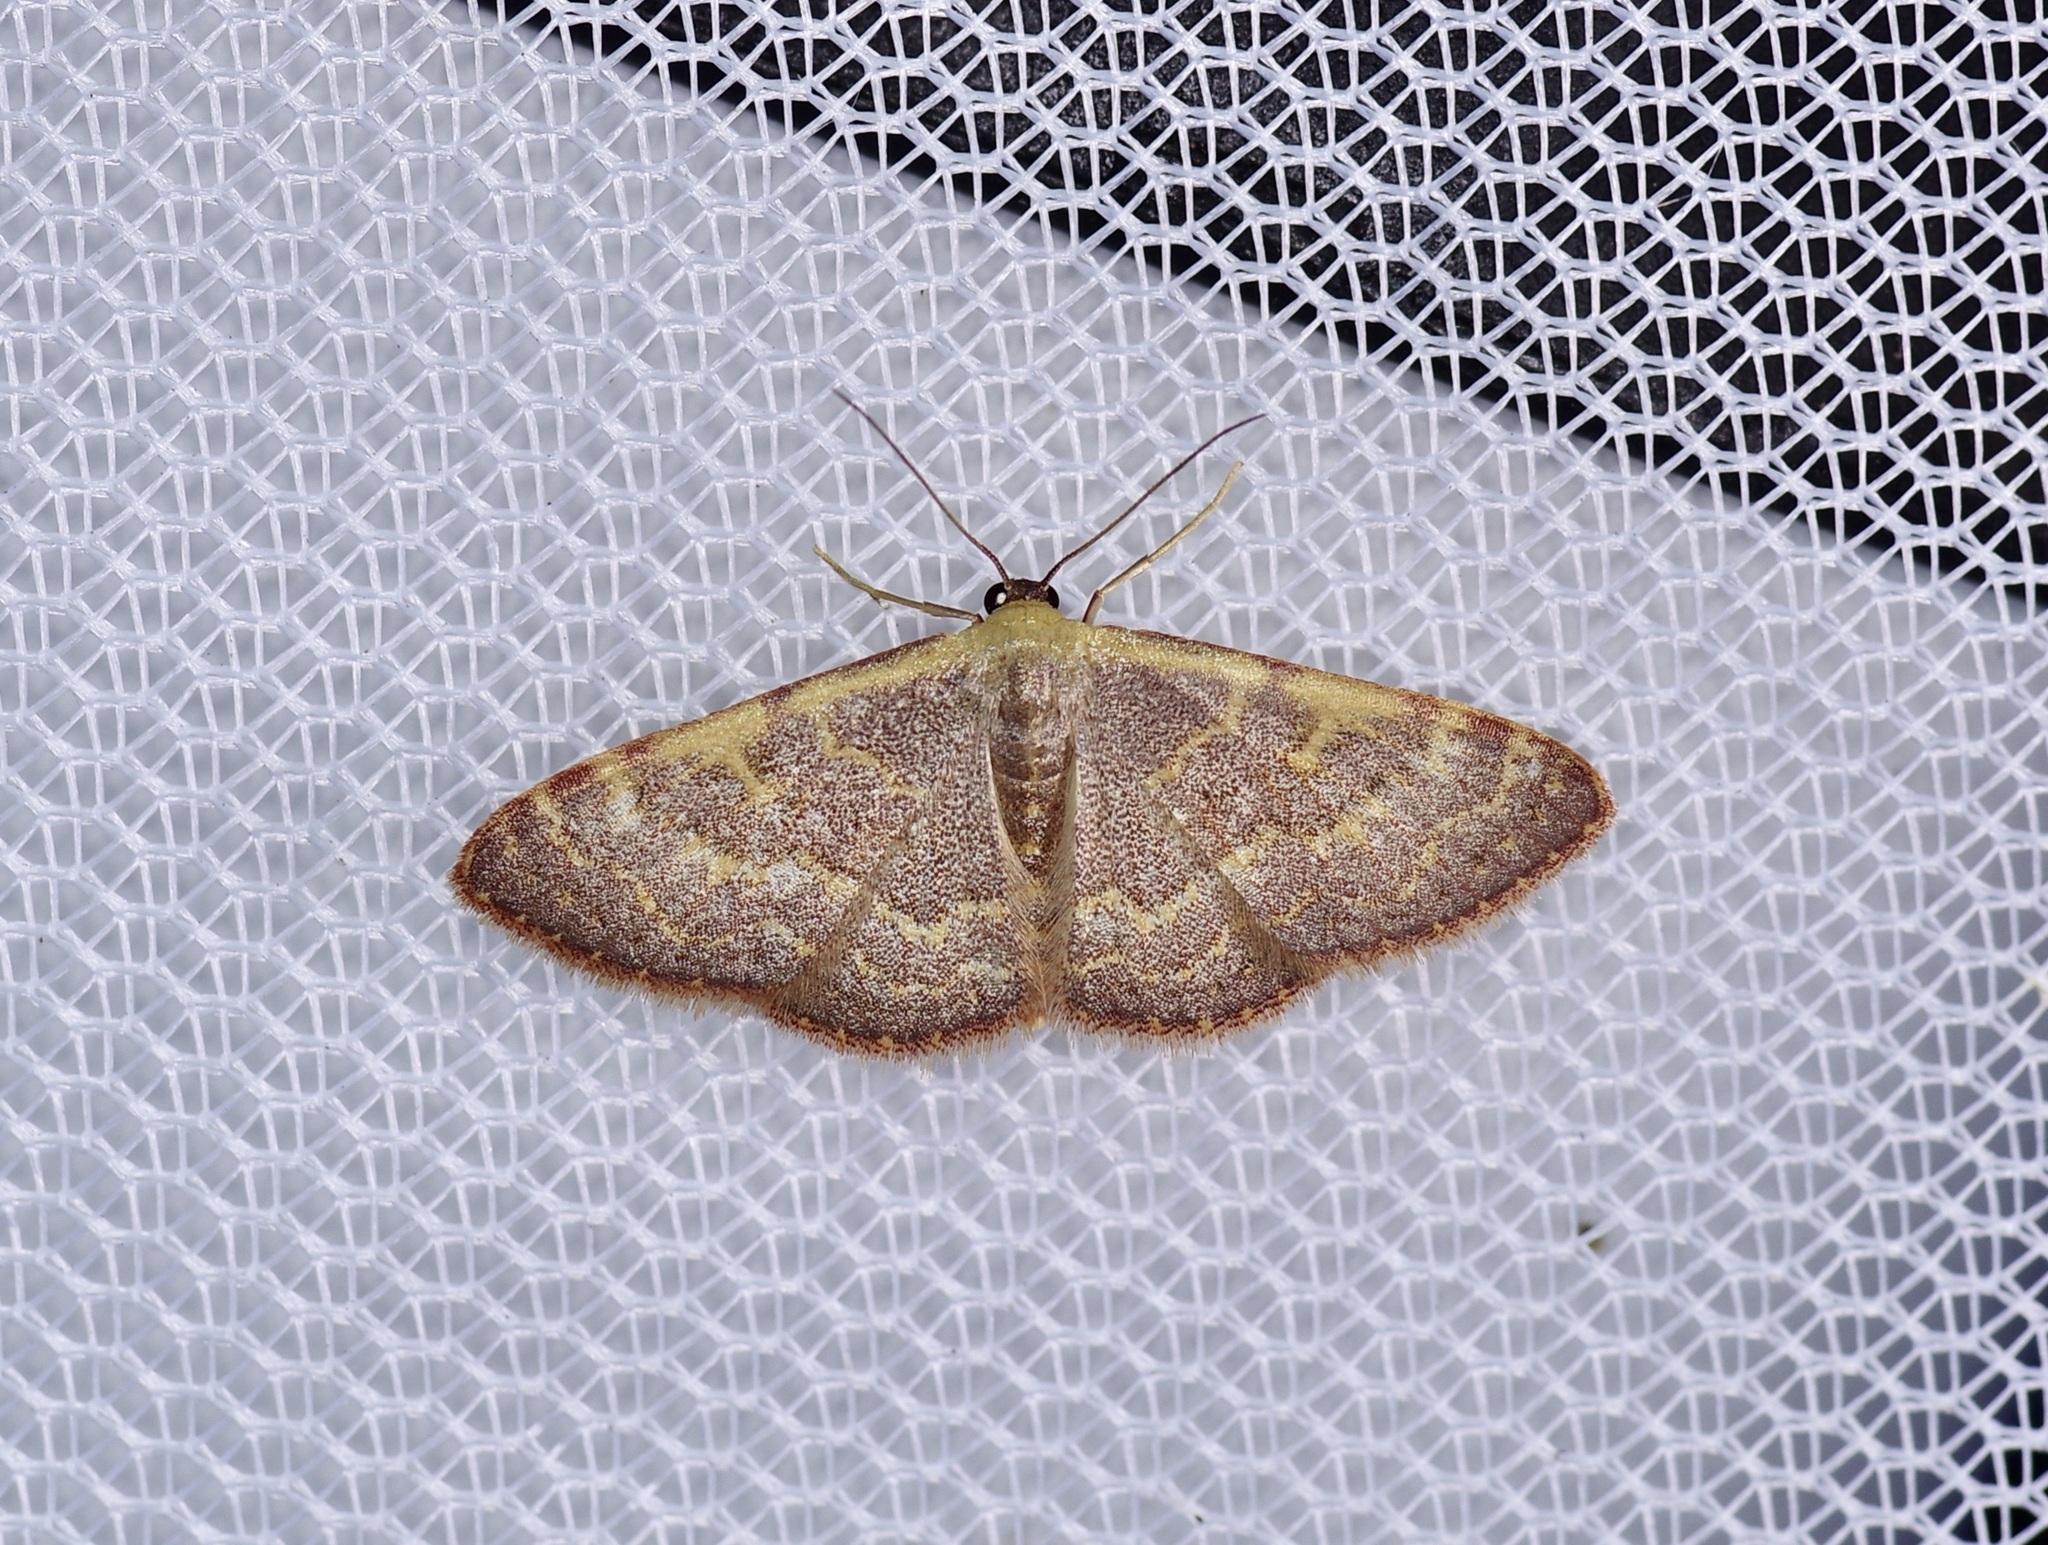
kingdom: Animalia
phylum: Arthropoda
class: Insecta
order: Lepidoptera
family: Geometridae
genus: Leptostales
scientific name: Leptostales pannaria
